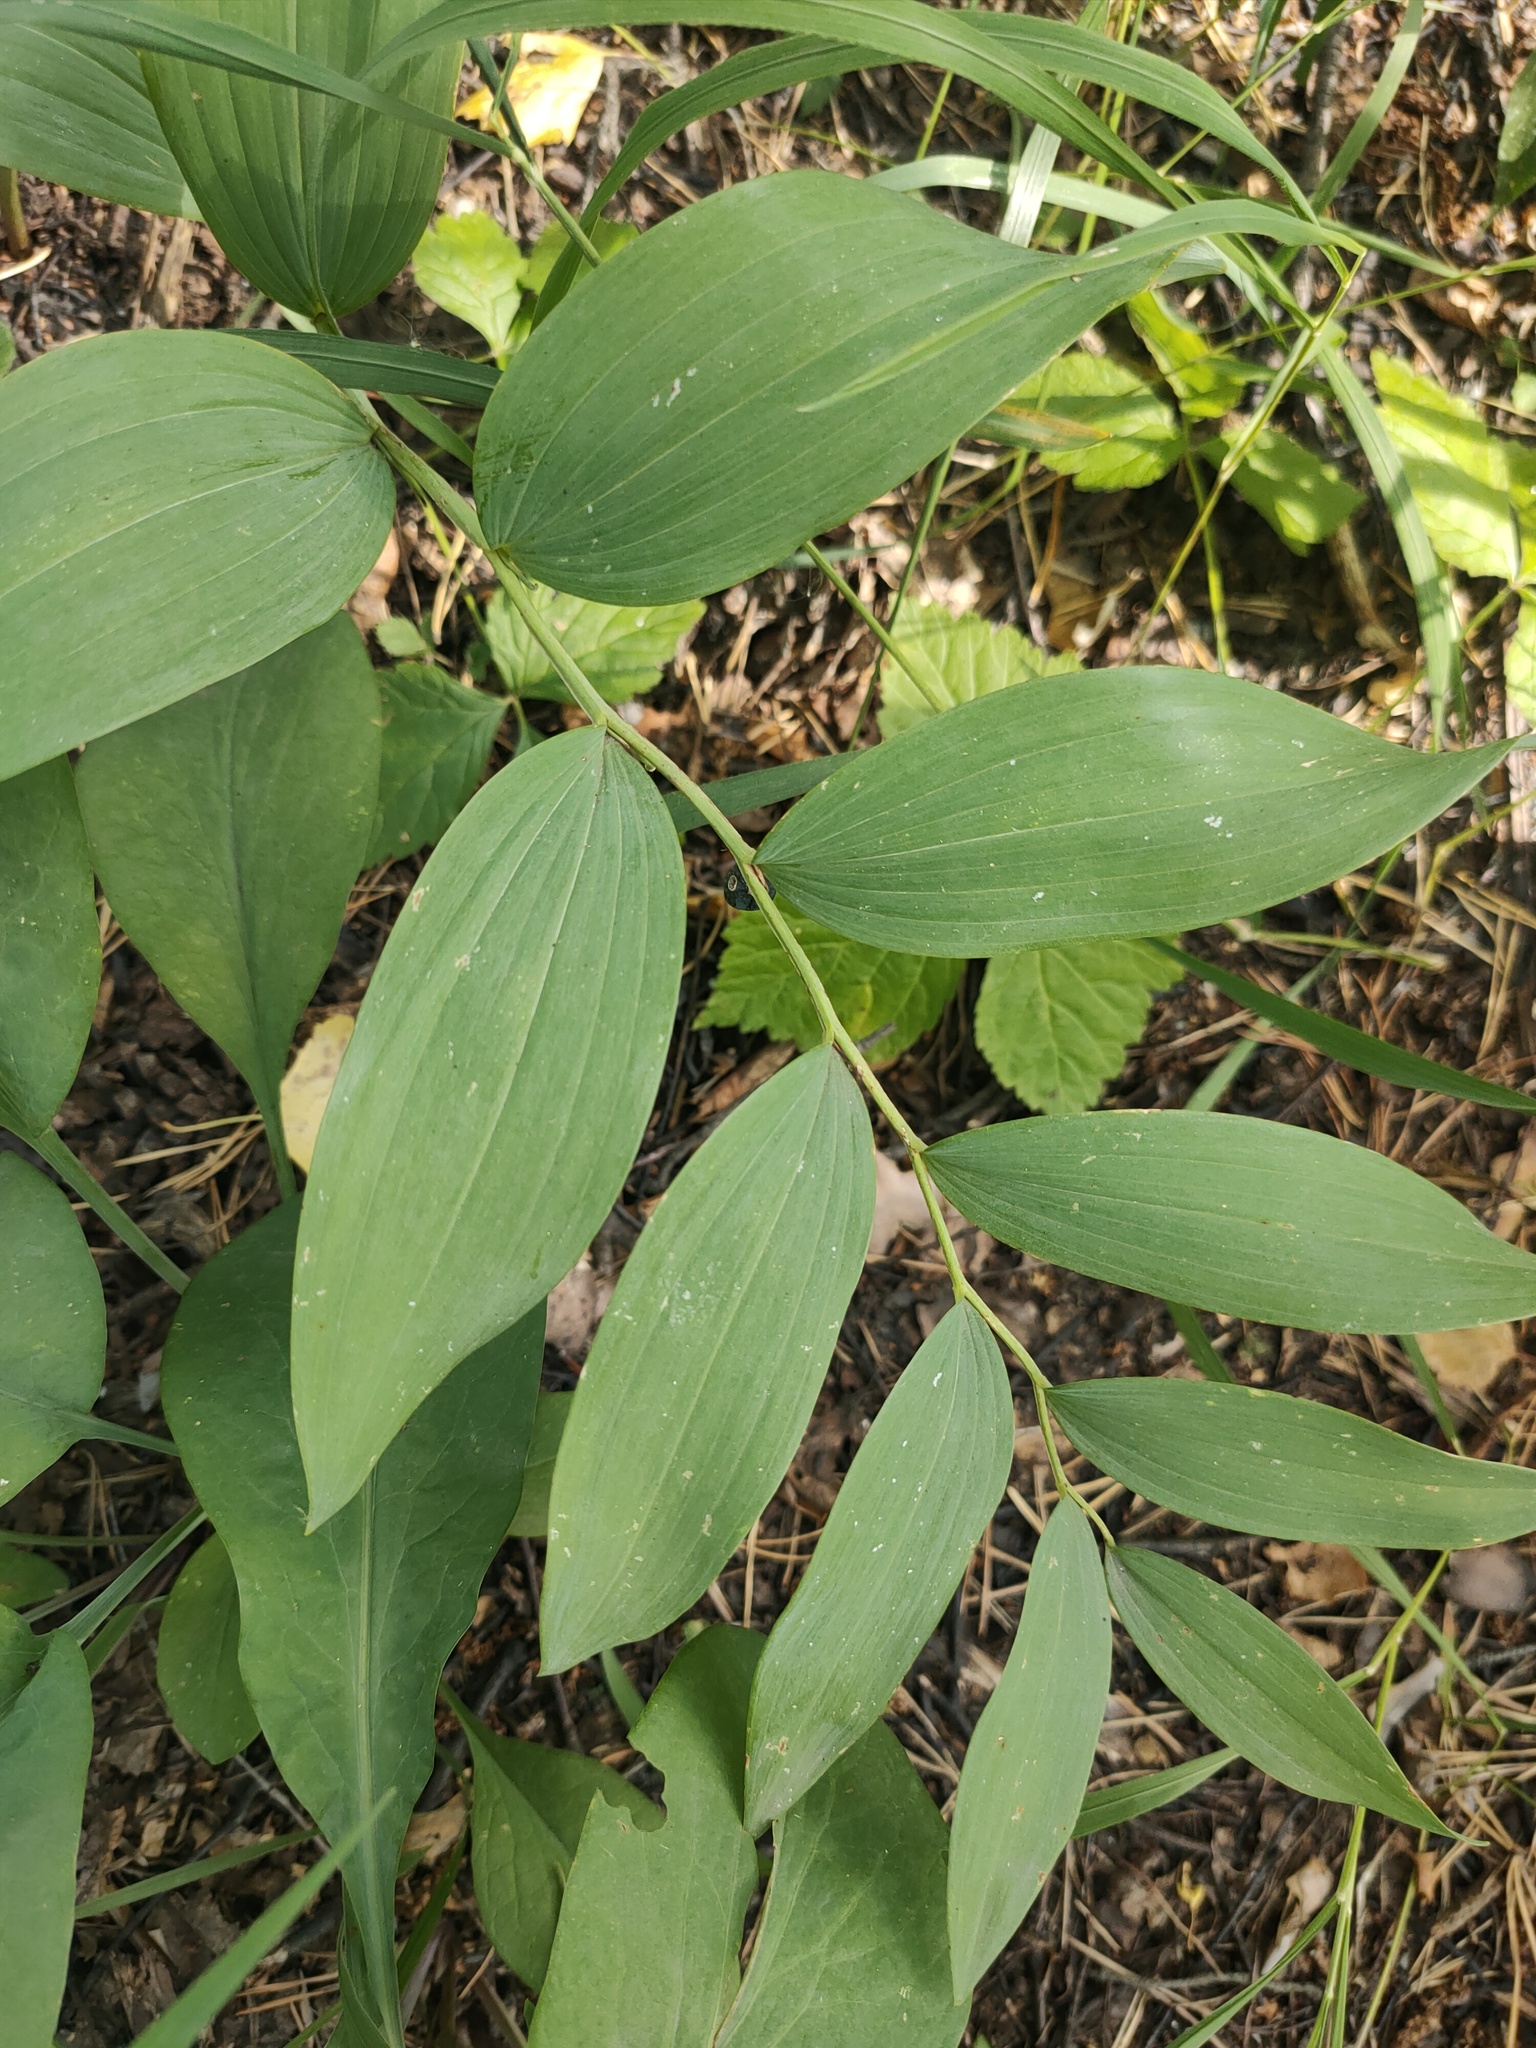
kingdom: Plantae
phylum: Tracheophyta
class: Liliopsida
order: Asparagales
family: Asparagaceae
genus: Polygonatum
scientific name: Polygonatum odoratum
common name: Angular solomon's-seal
